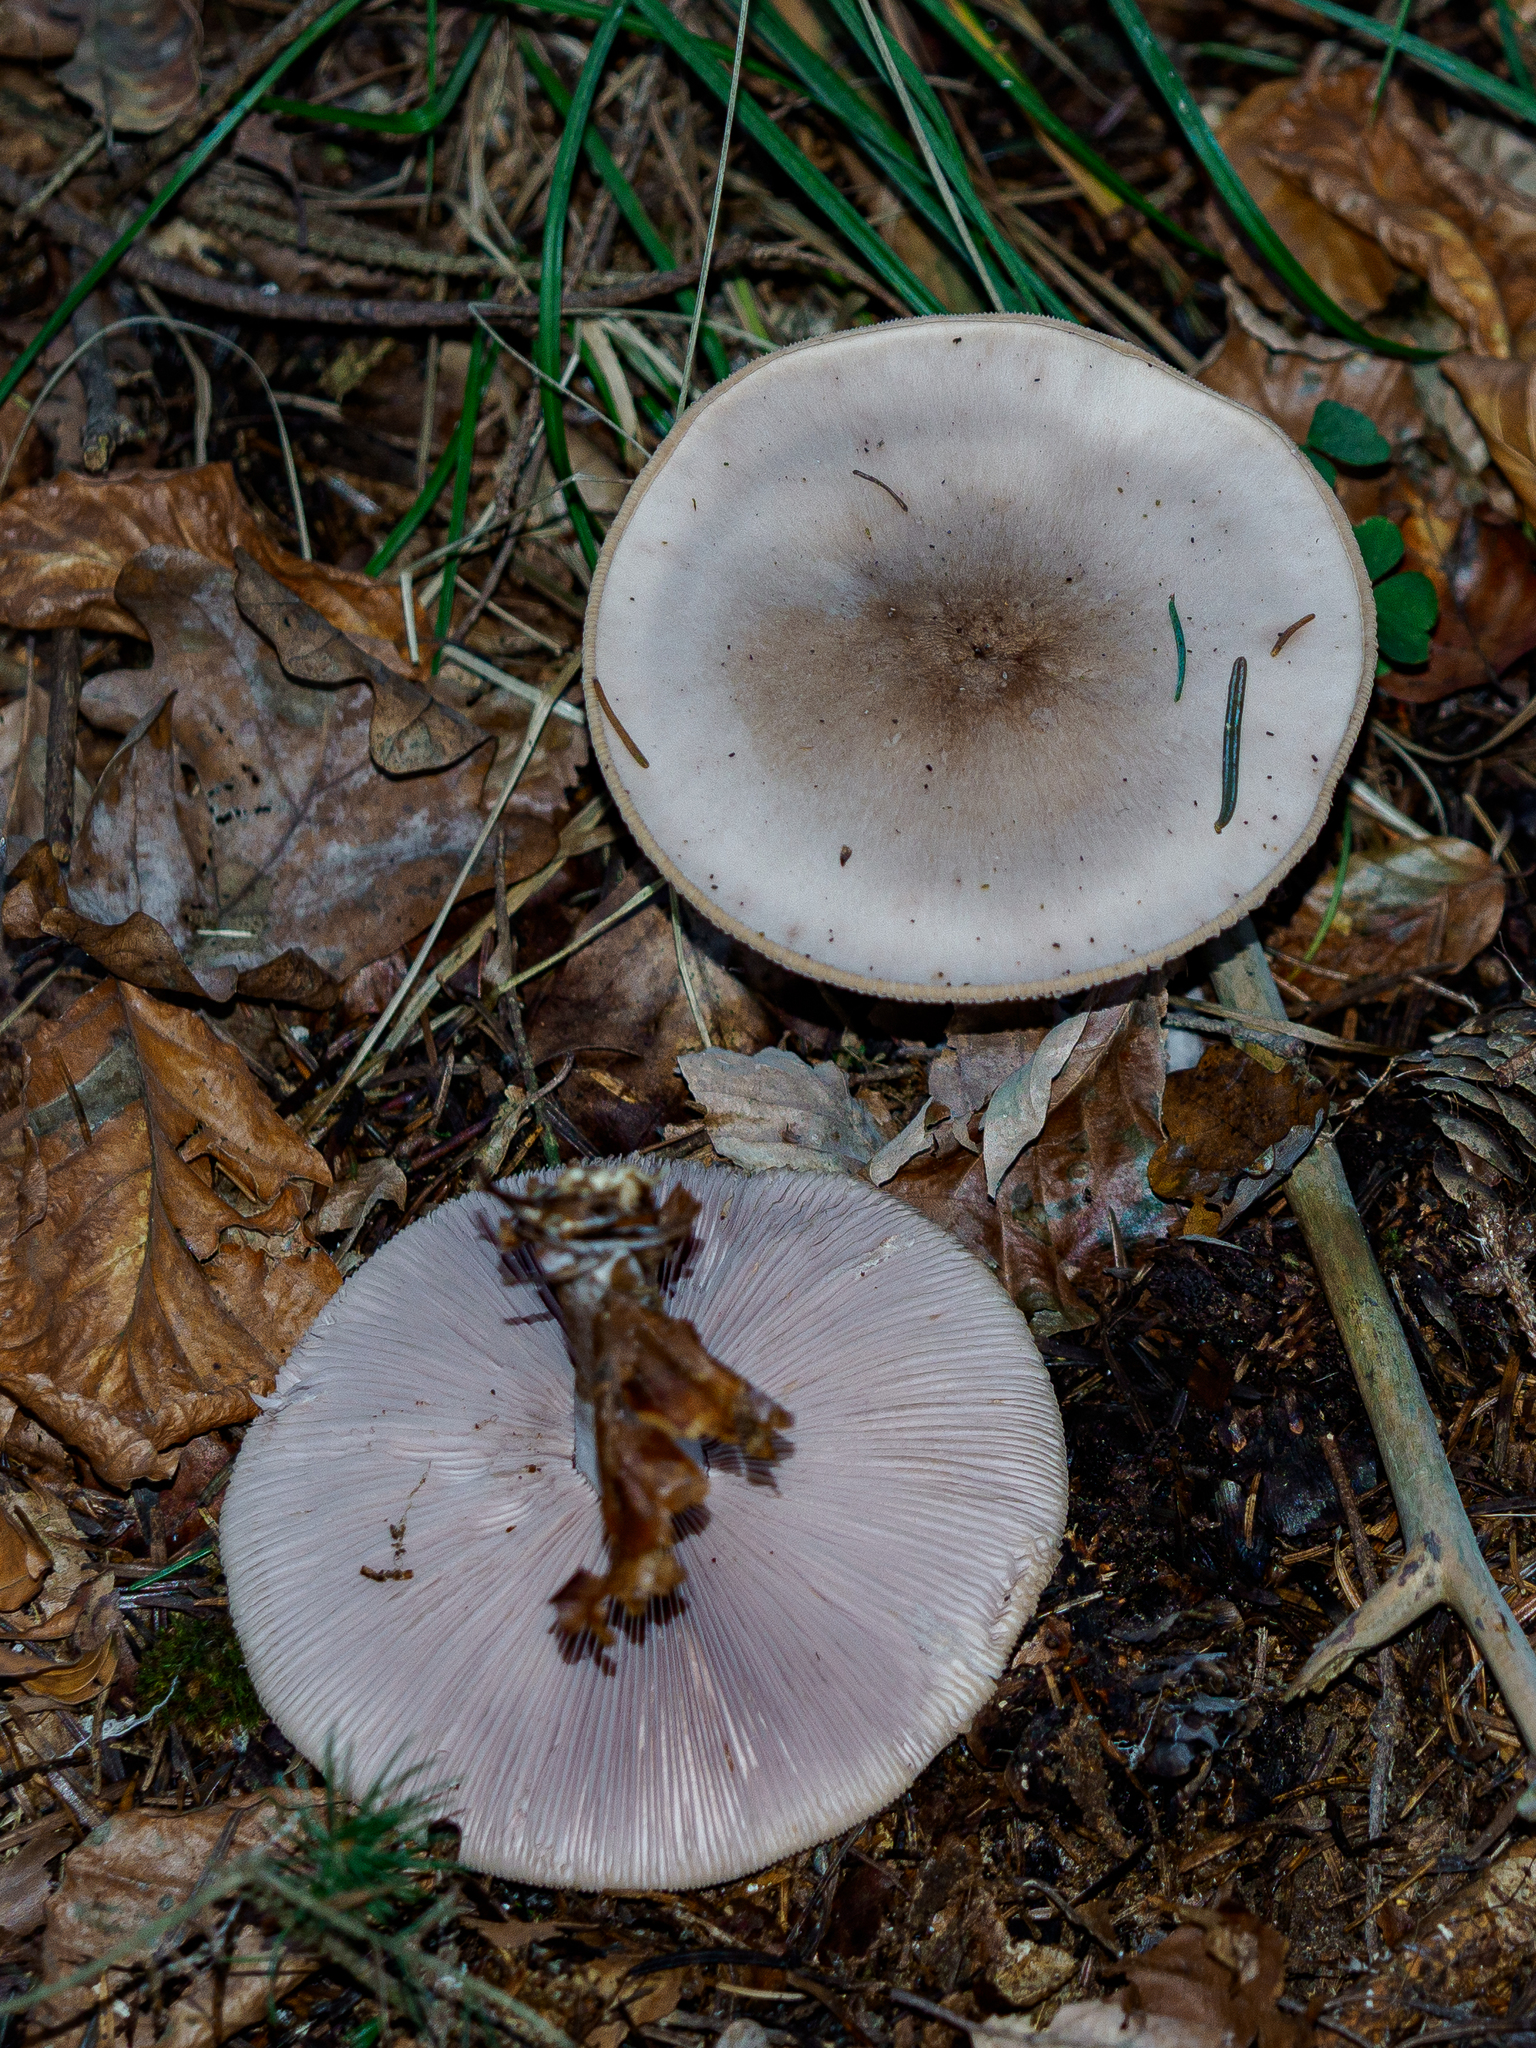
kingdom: Fungi
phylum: Basidiomycota
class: Agaricomycetes
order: Agaricales
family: Tricholomataceae
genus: Lepista
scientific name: Lepista glaucocana
